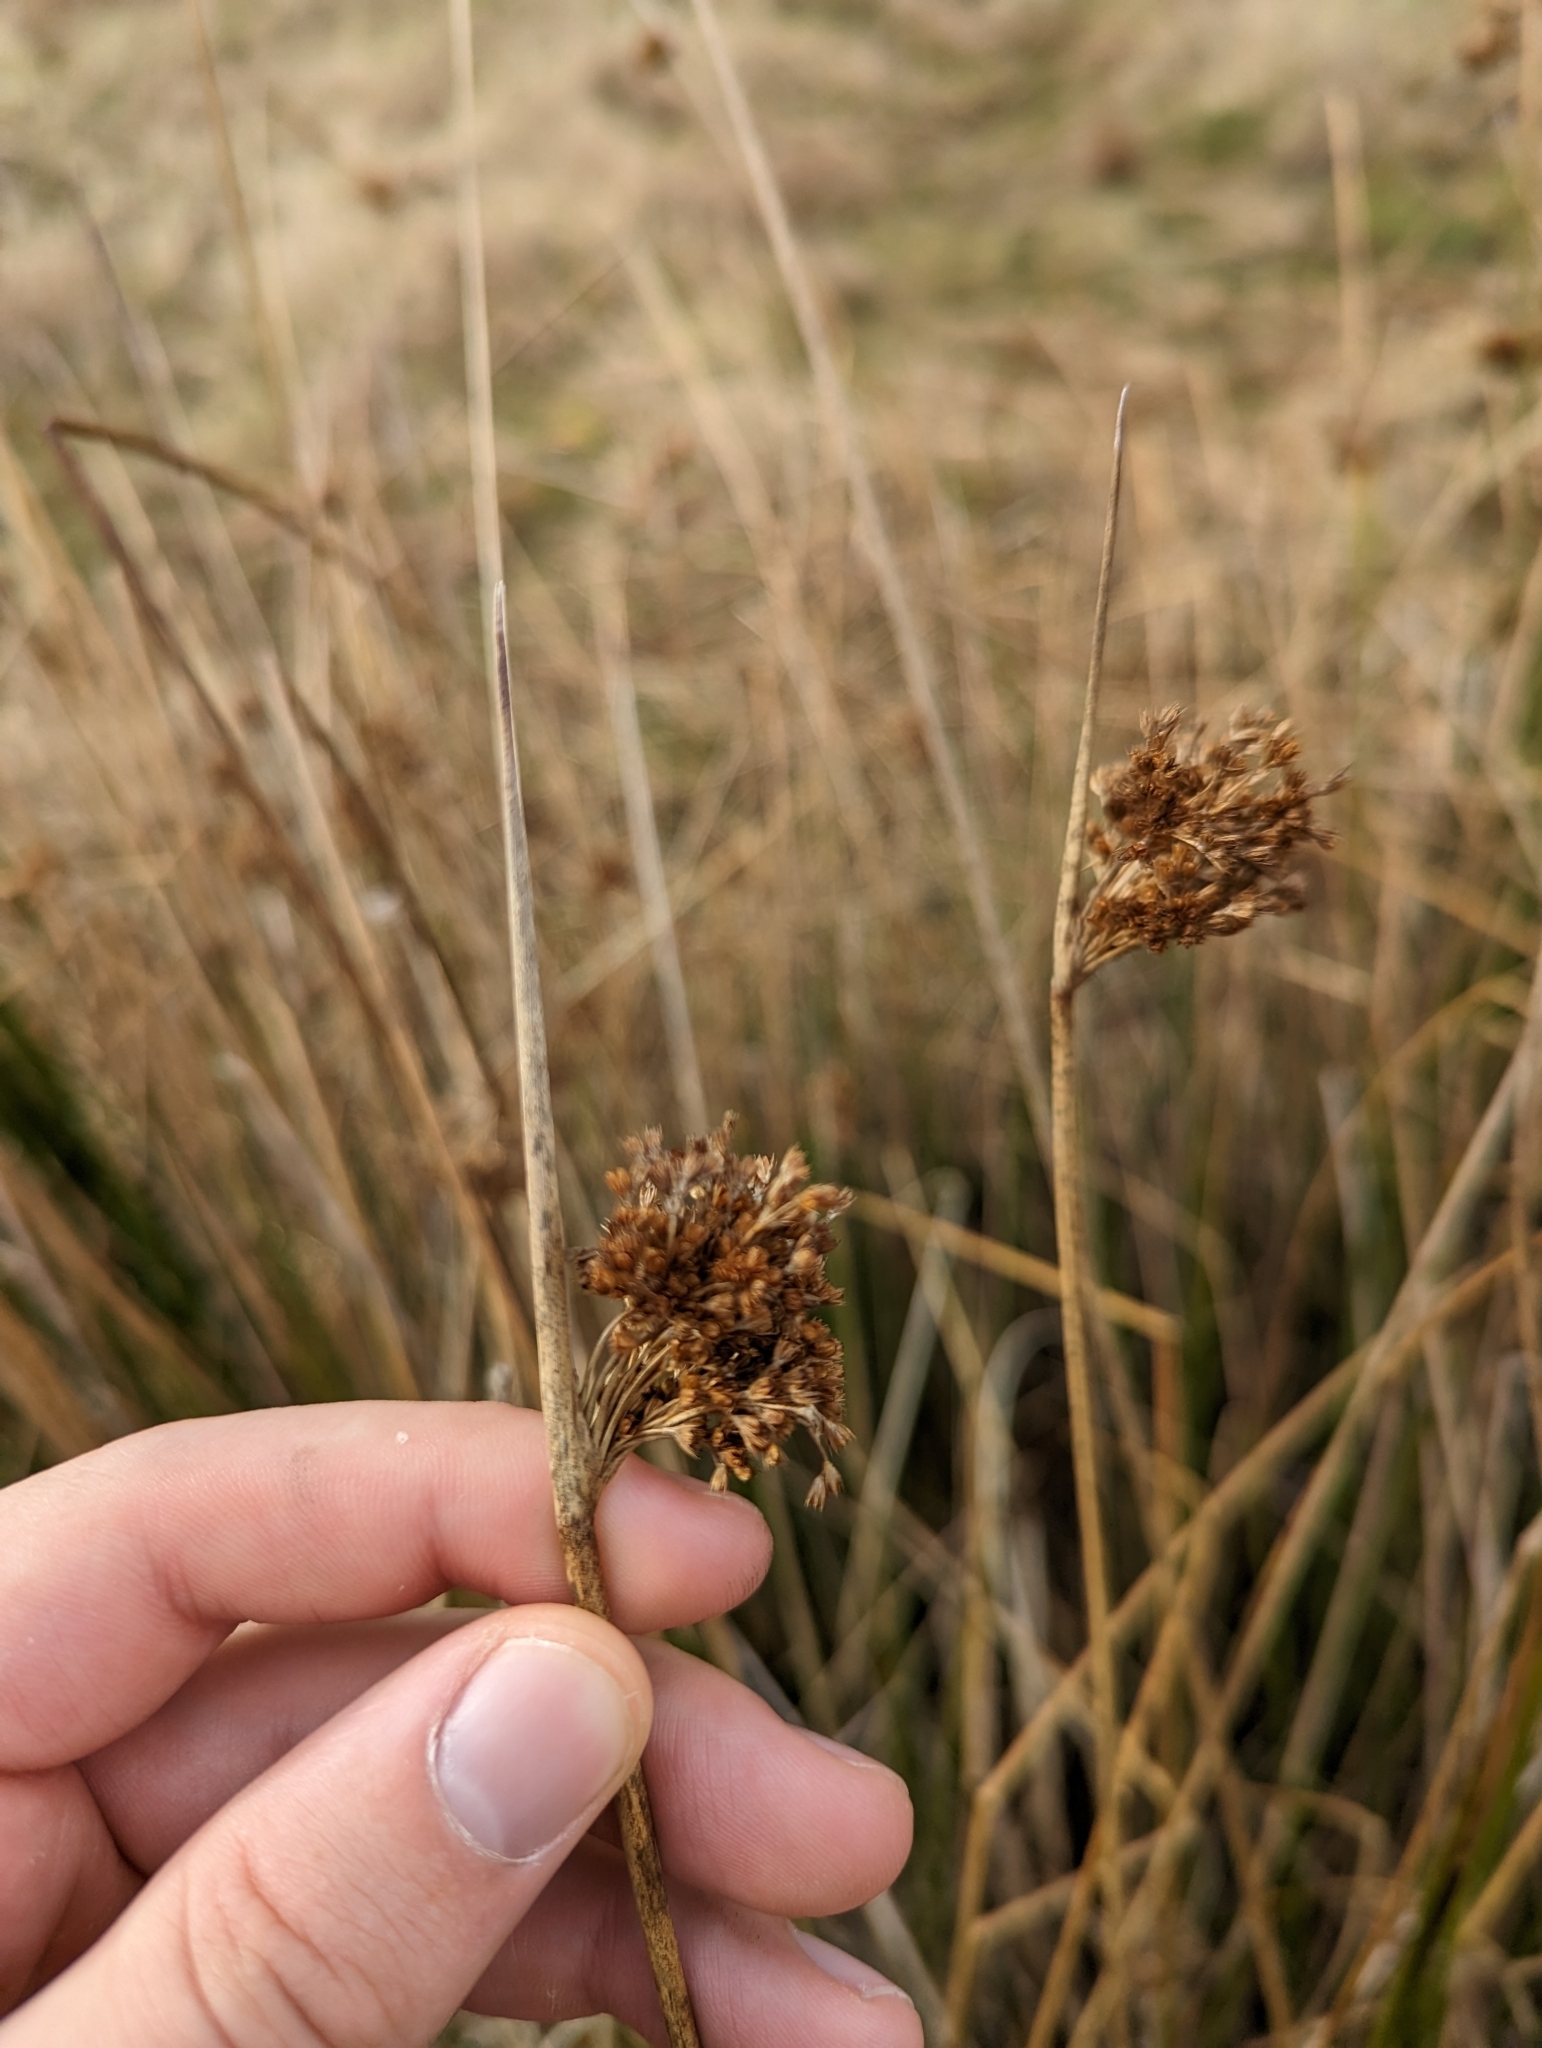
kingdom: Plantae
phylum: Tracheophyta
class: Liliopsida
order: Poales
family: Juncaceae
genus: Juncus
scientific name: Juncus effusus
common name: Soft rush
